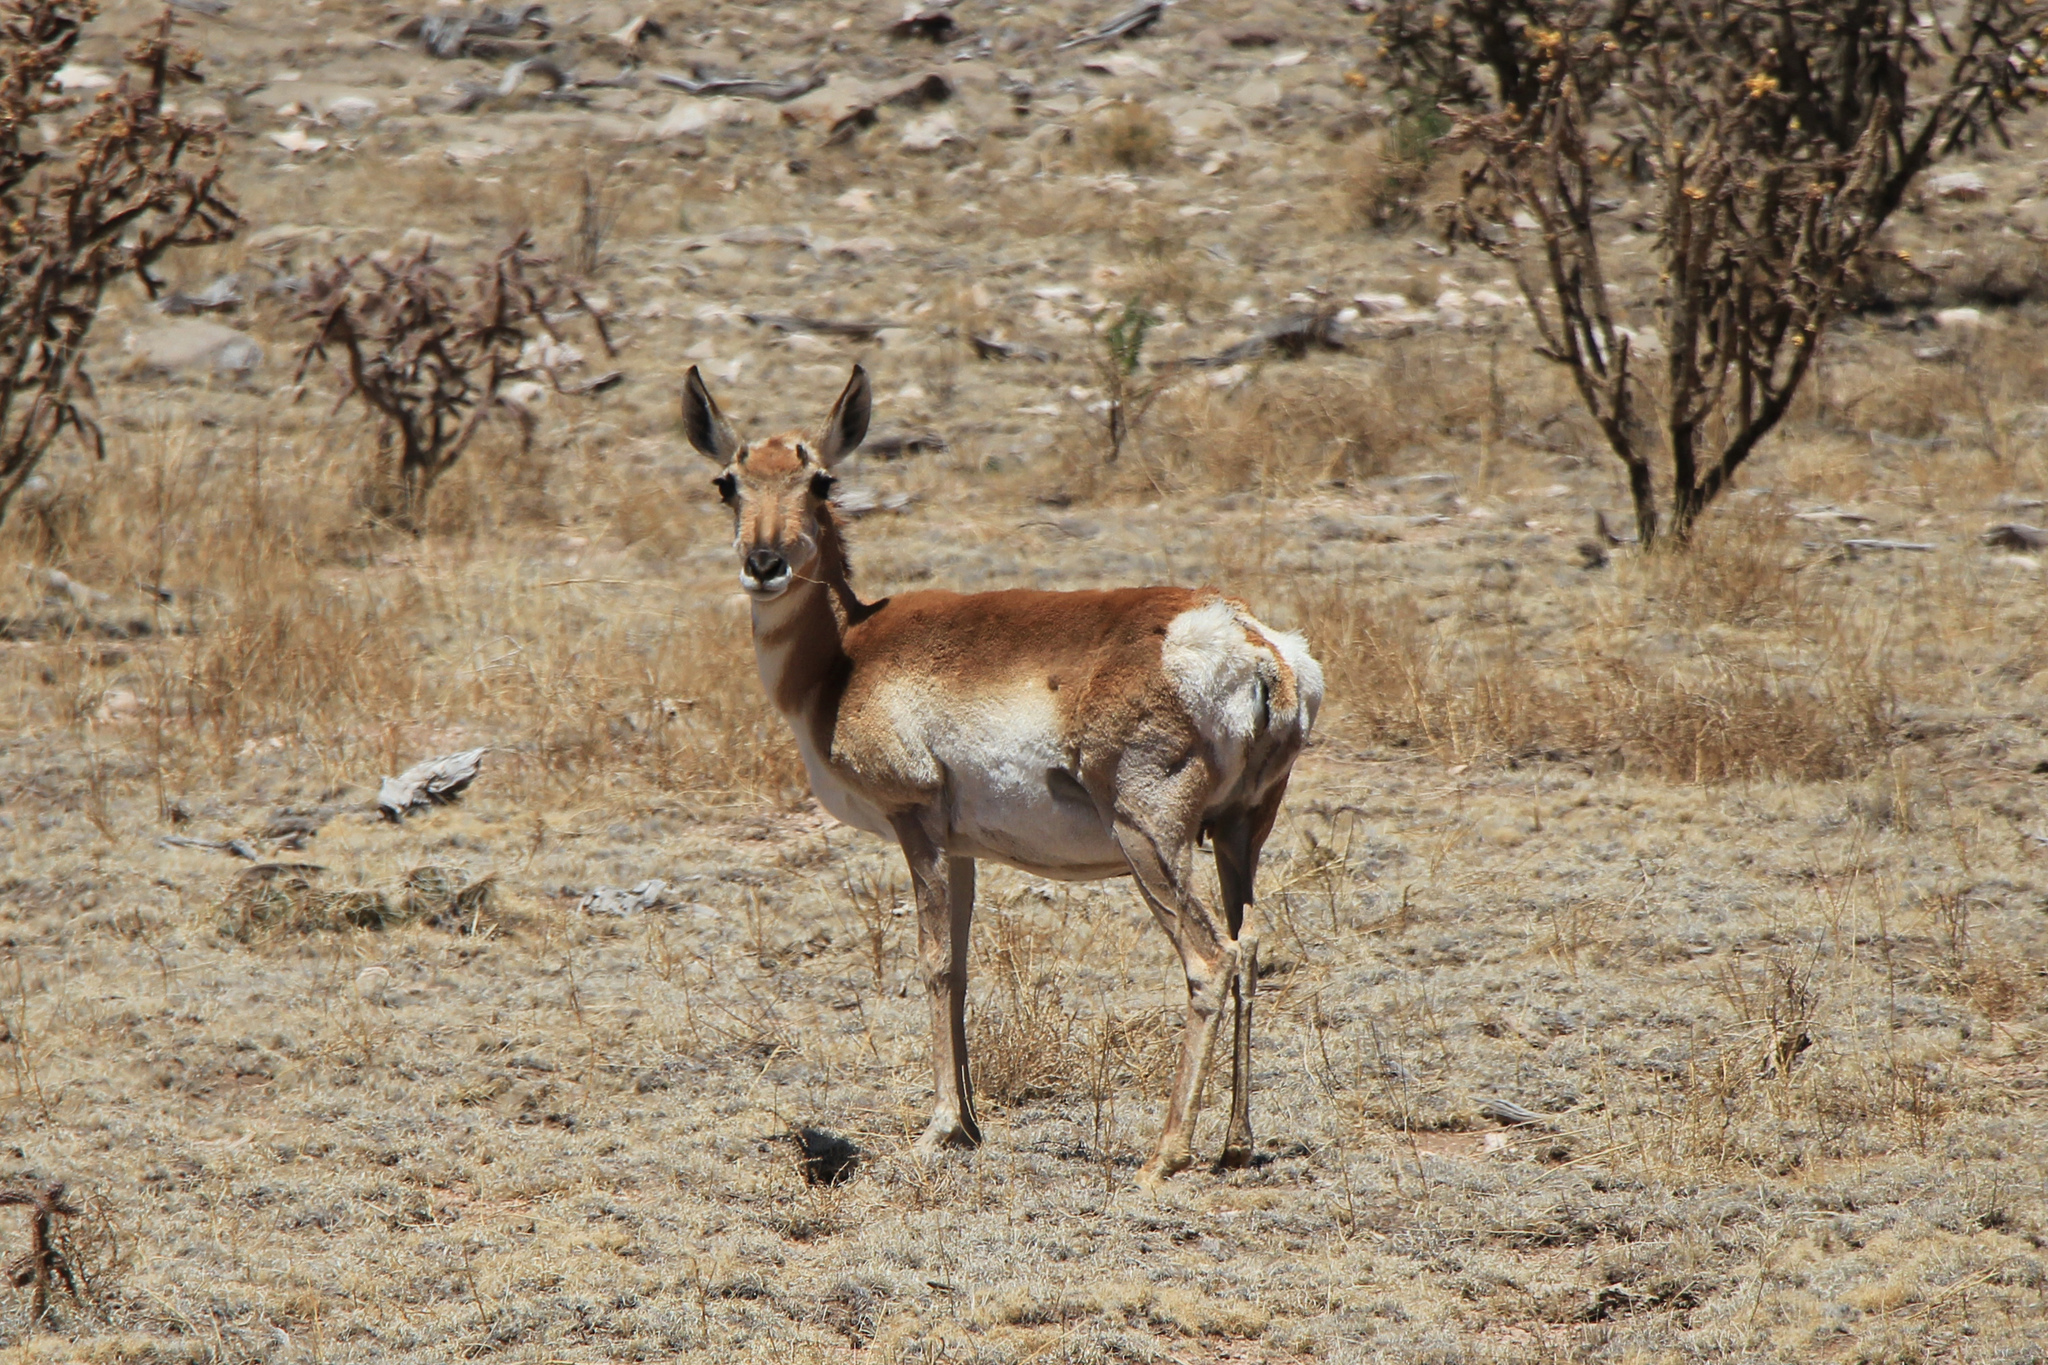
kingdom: Animalia
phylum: Chordata
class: Mammalia
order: Artiodactyla
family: Antilocapridae
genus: Antilocapra
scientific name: Antilocapra americana
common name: Pronghorn
